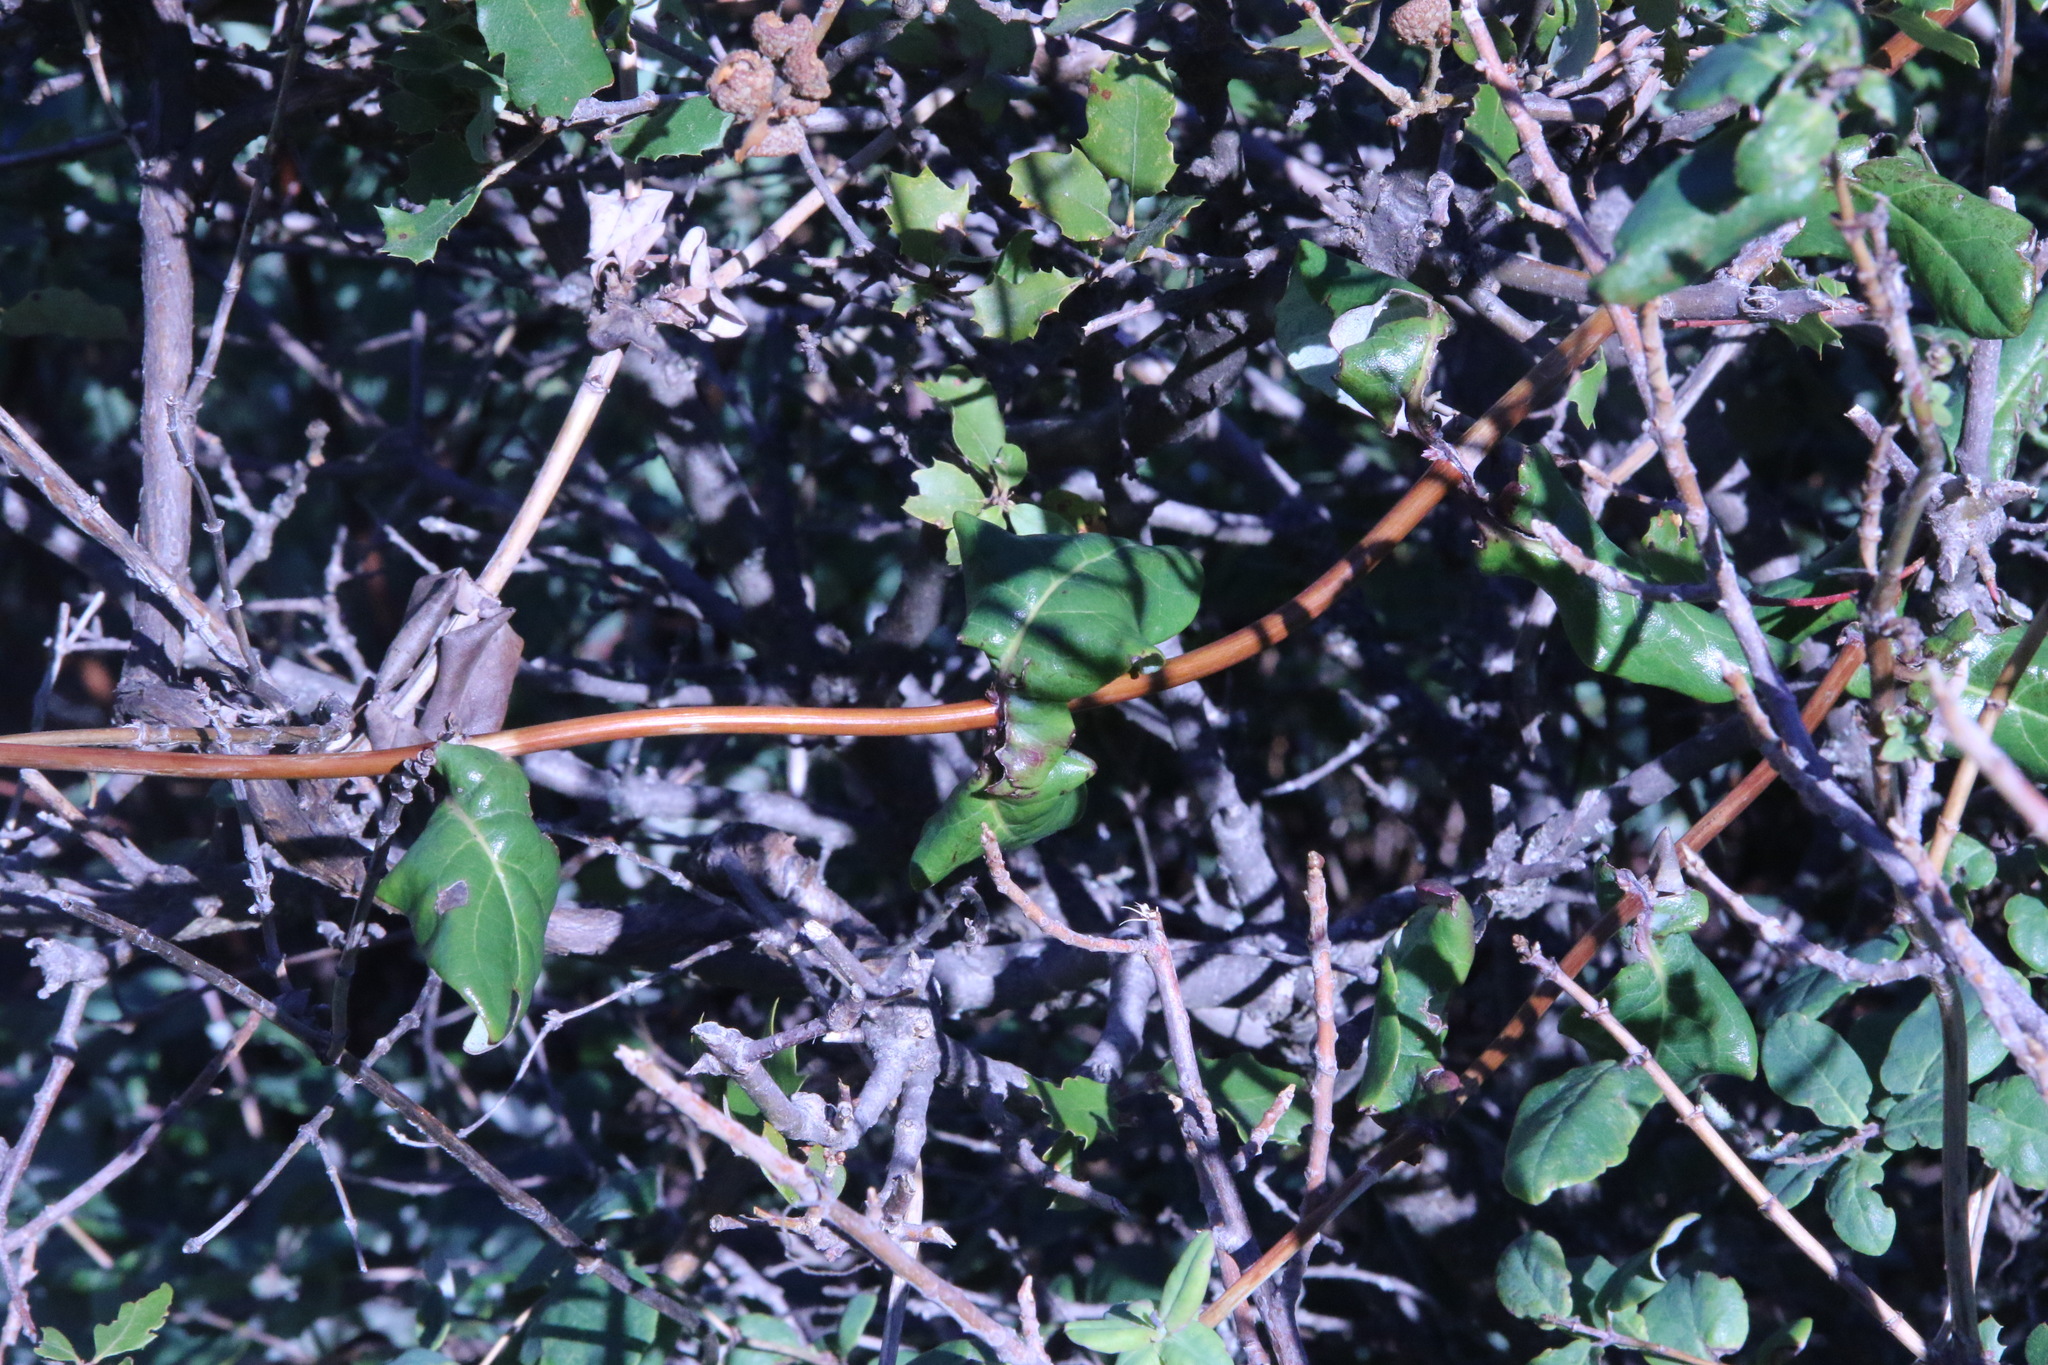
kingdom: Plantae
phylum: Tracheophyta
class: Magnoliopsida
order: Dipsacales
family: Caprifoliaceae
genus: Lonicera
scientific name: Lonicera hispidula
